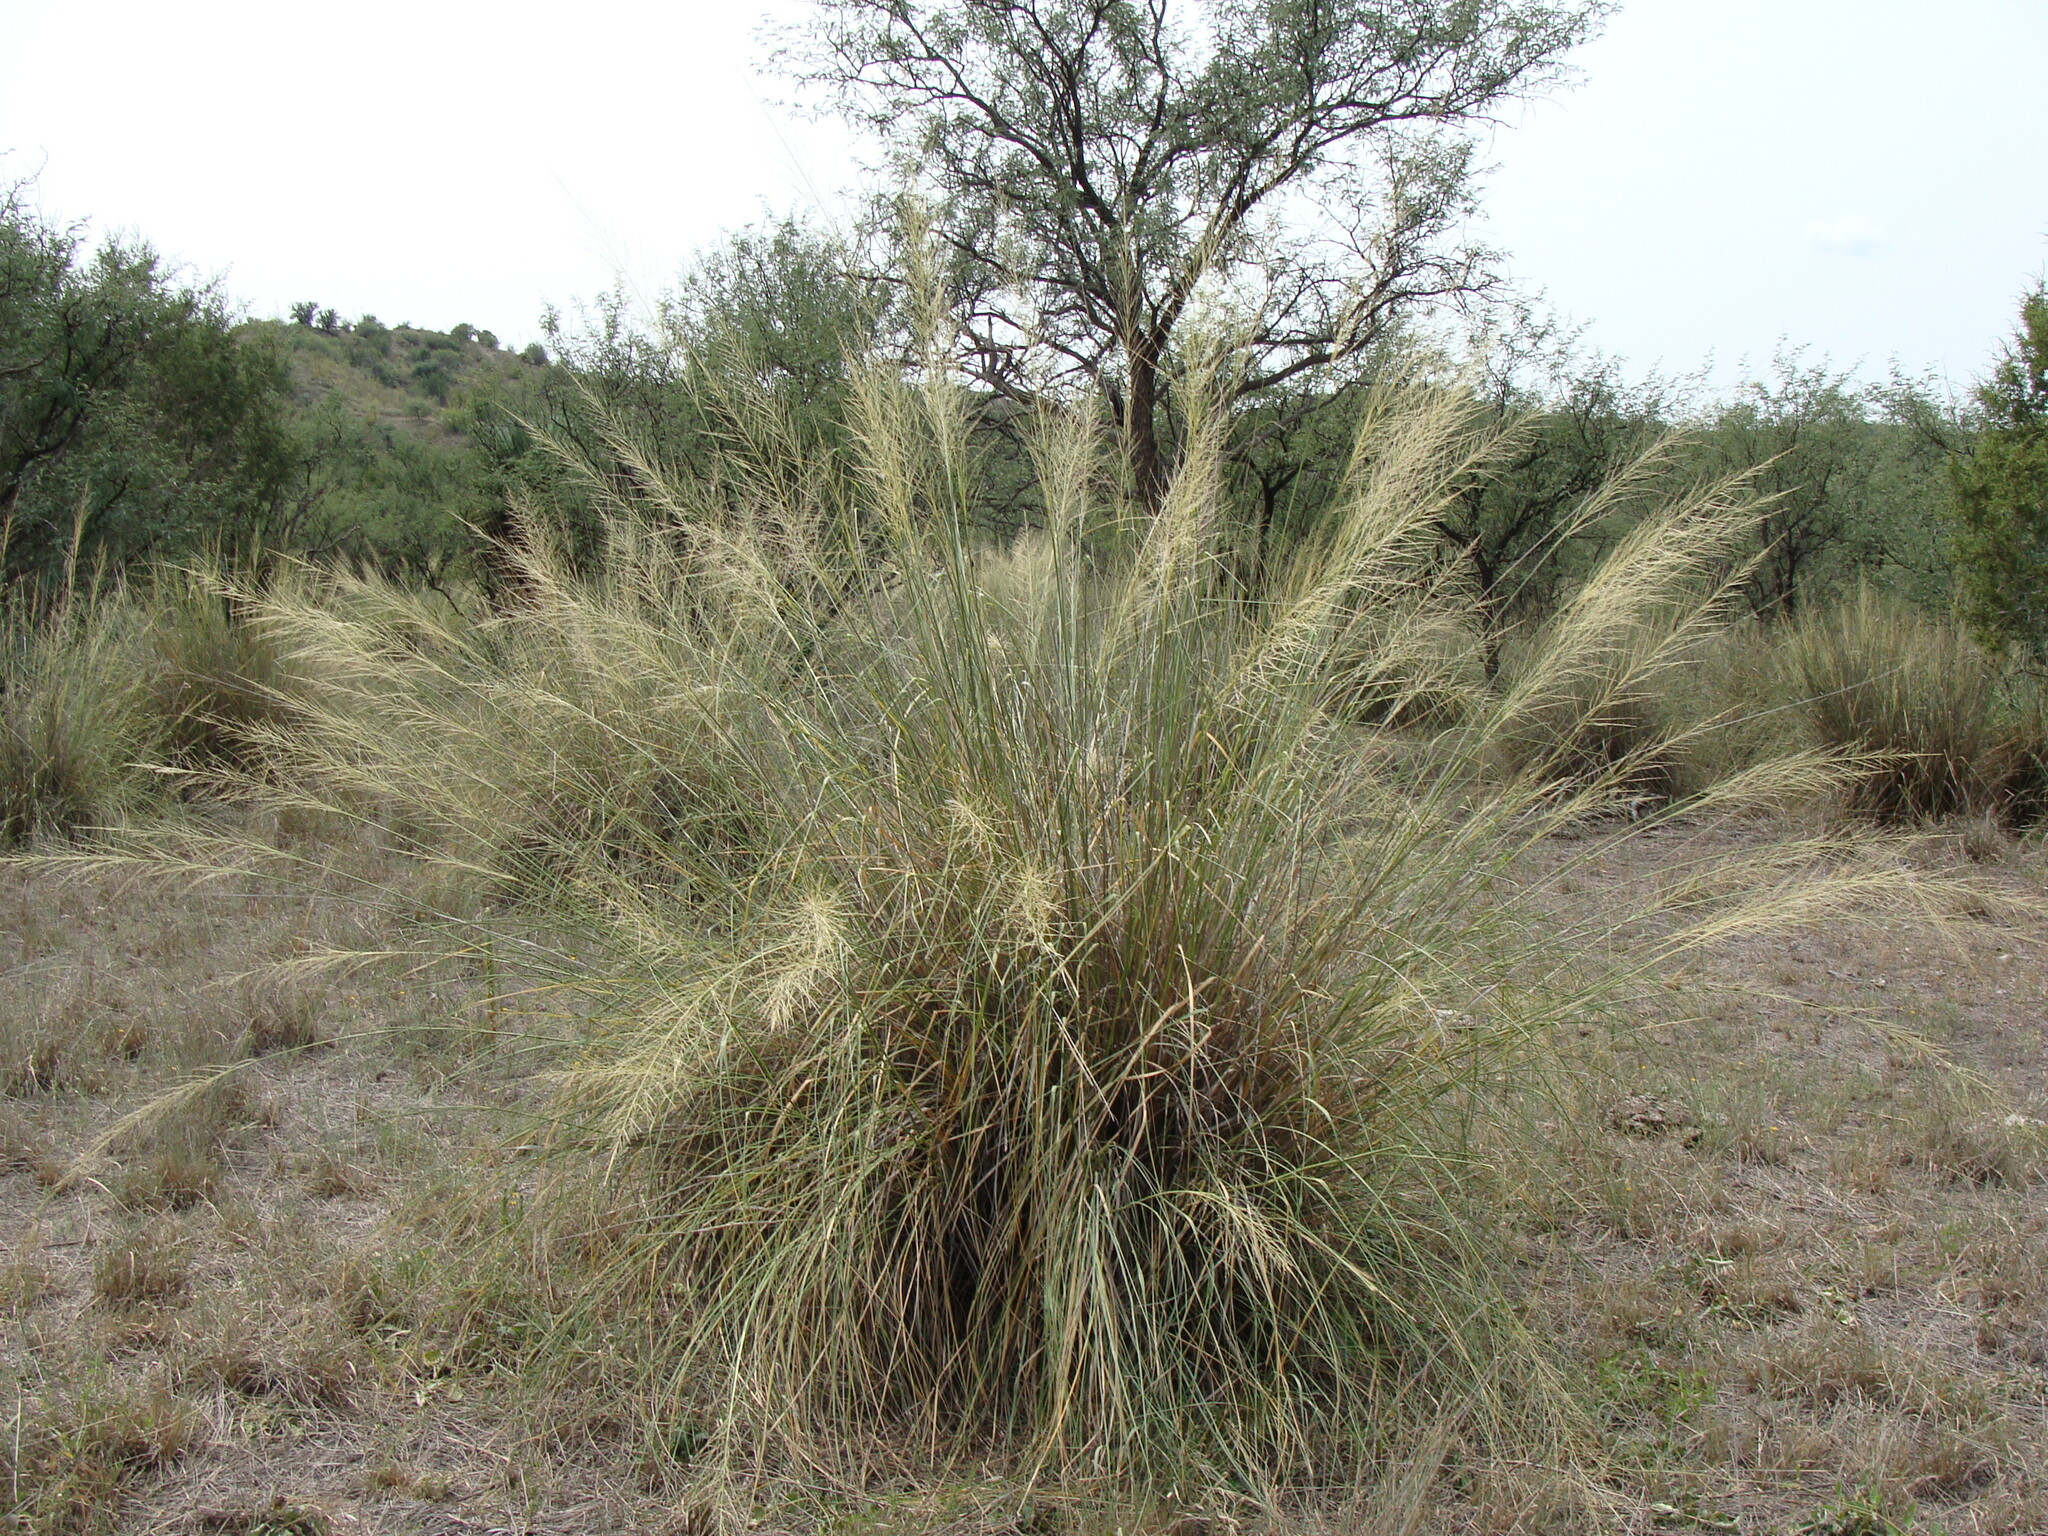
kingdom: Plantae
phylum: Tracheophyta
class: Liliopsida
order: Poales
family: Poaceae
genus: Sporobolus
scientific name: Sporobolus airoides
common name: Alkali sacaton
